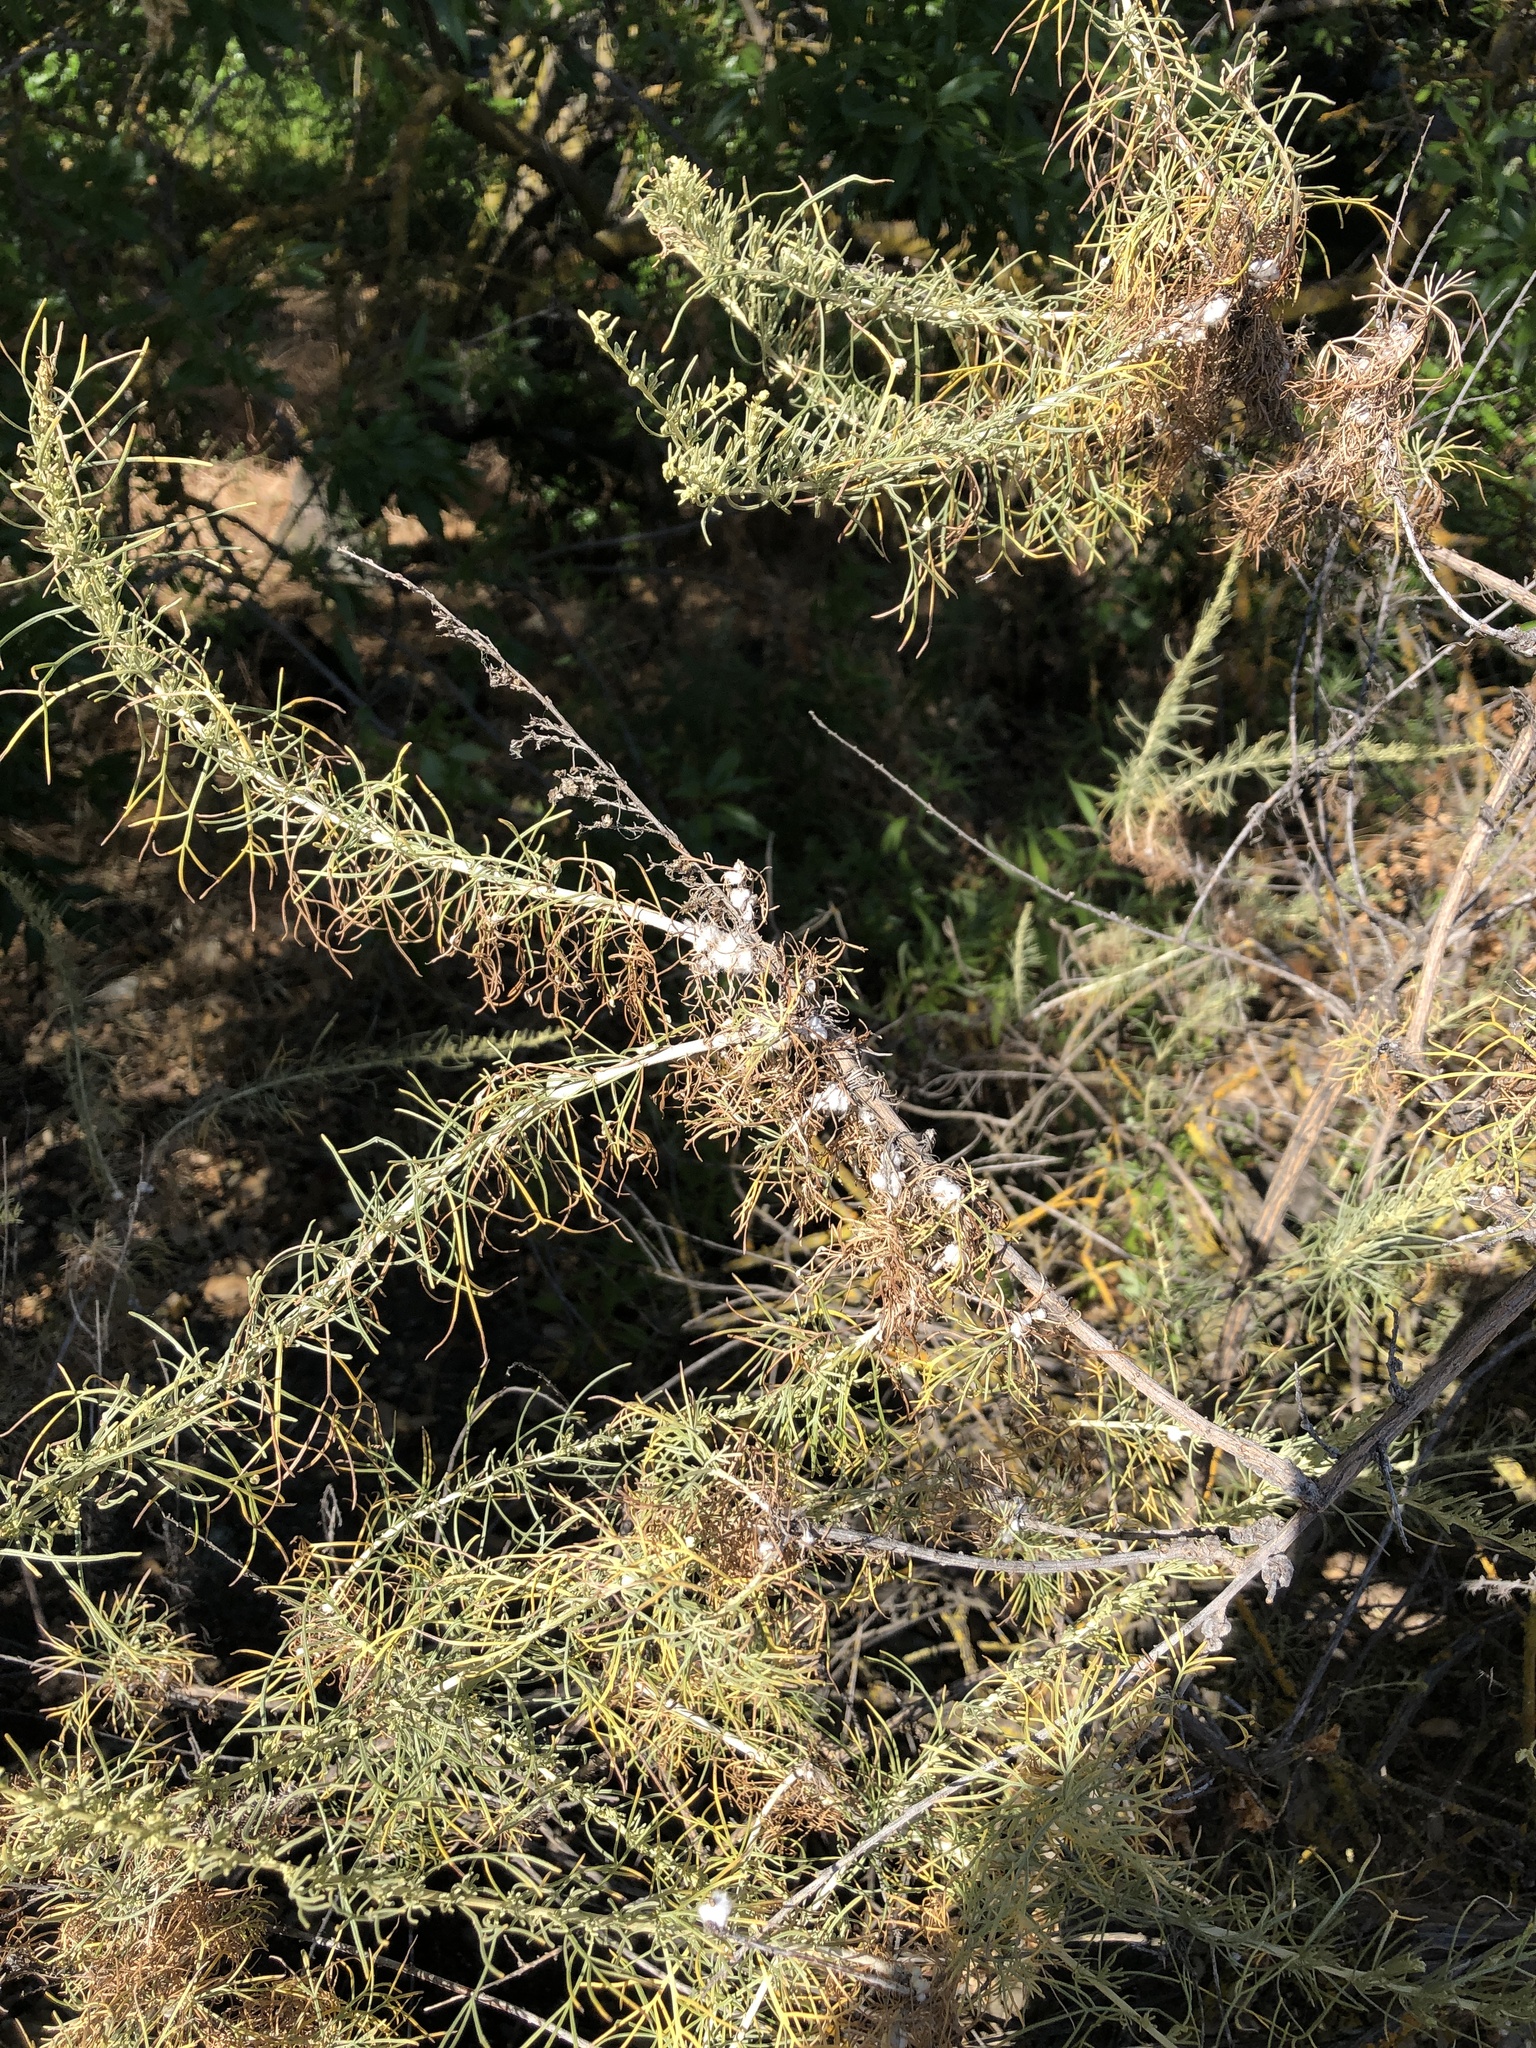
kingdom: Plantae
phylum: Tracheophyta
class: Magnoliopsida
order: Asterales
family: Asteraceae
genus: Artemisia
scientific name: Artemisia californica
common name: California sagebrush
